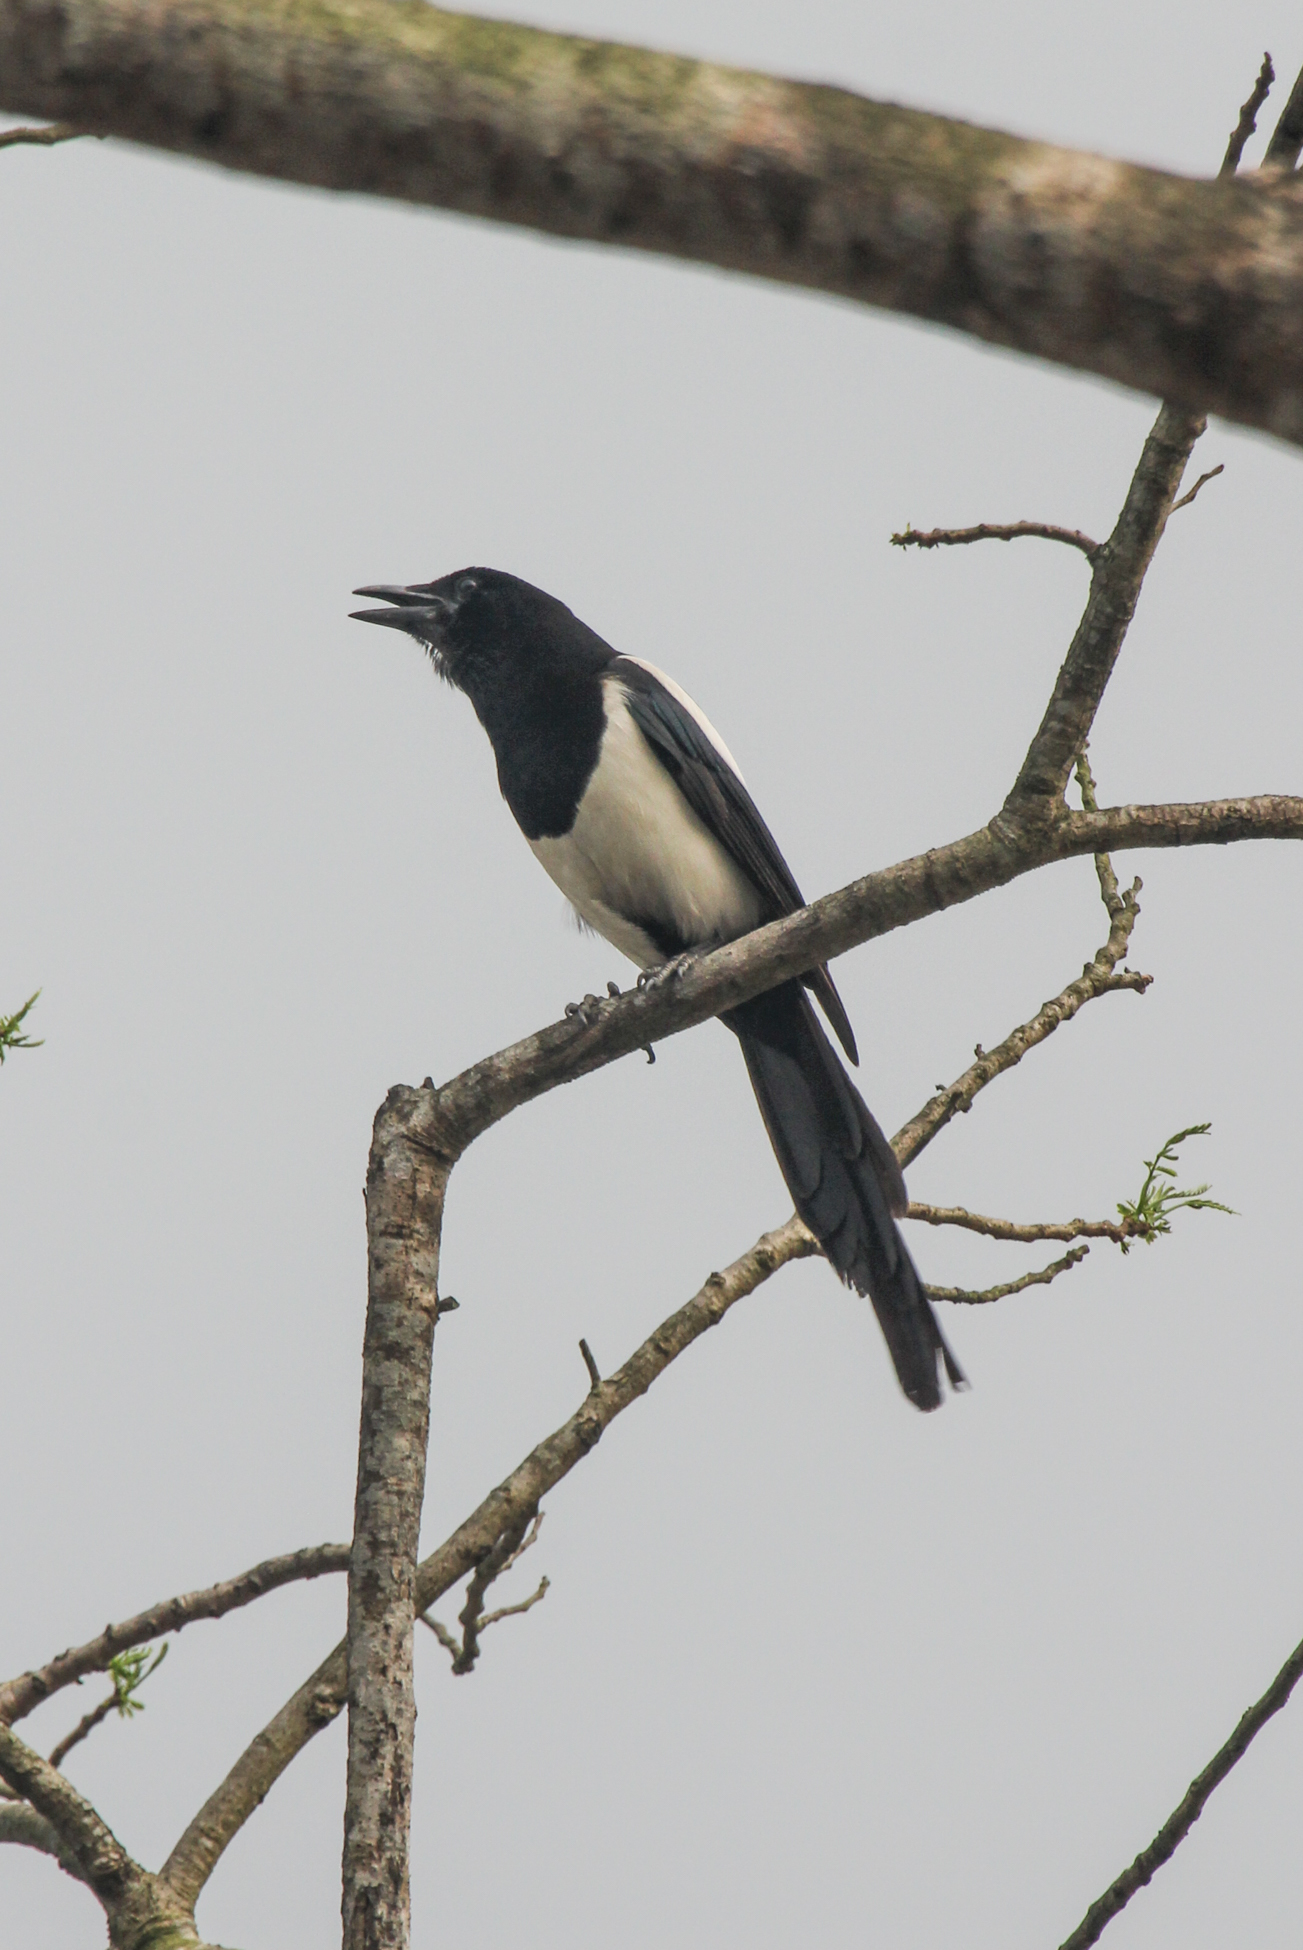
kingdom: Animalia
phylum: Chordata
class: Aves
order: Passeriformes
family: Corvidae
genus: Pica
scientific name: Pica serica
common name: Oriental magpie
